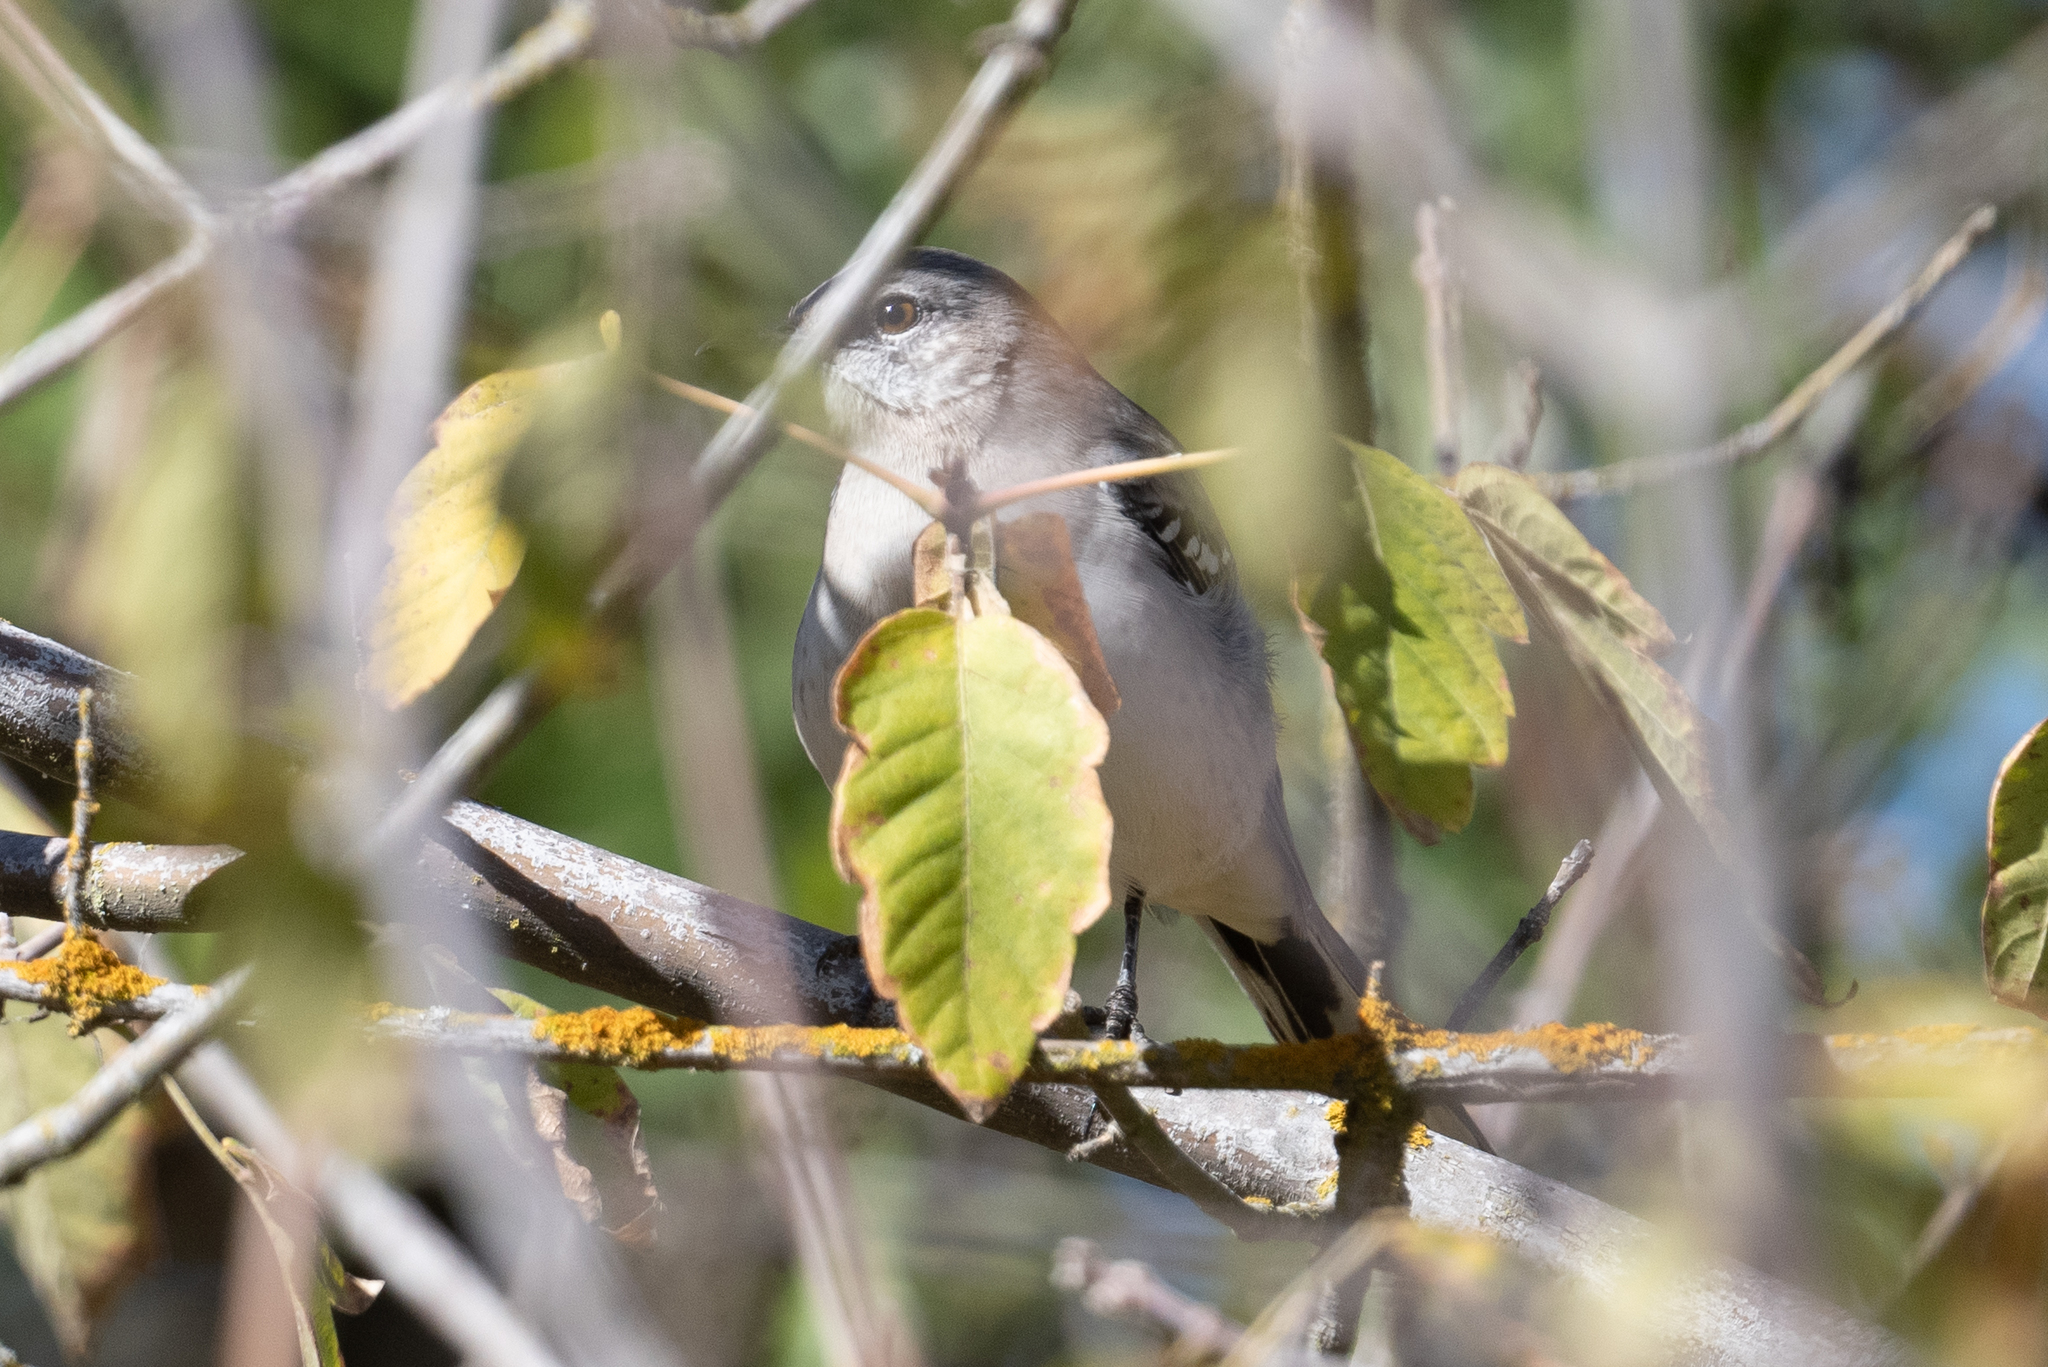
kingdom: Animalia
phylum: Chordata
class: Aves
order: Passeriformes
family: Mimidae
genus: Mimus
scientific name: Mimus polyglottos
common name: Northern mockingbird
